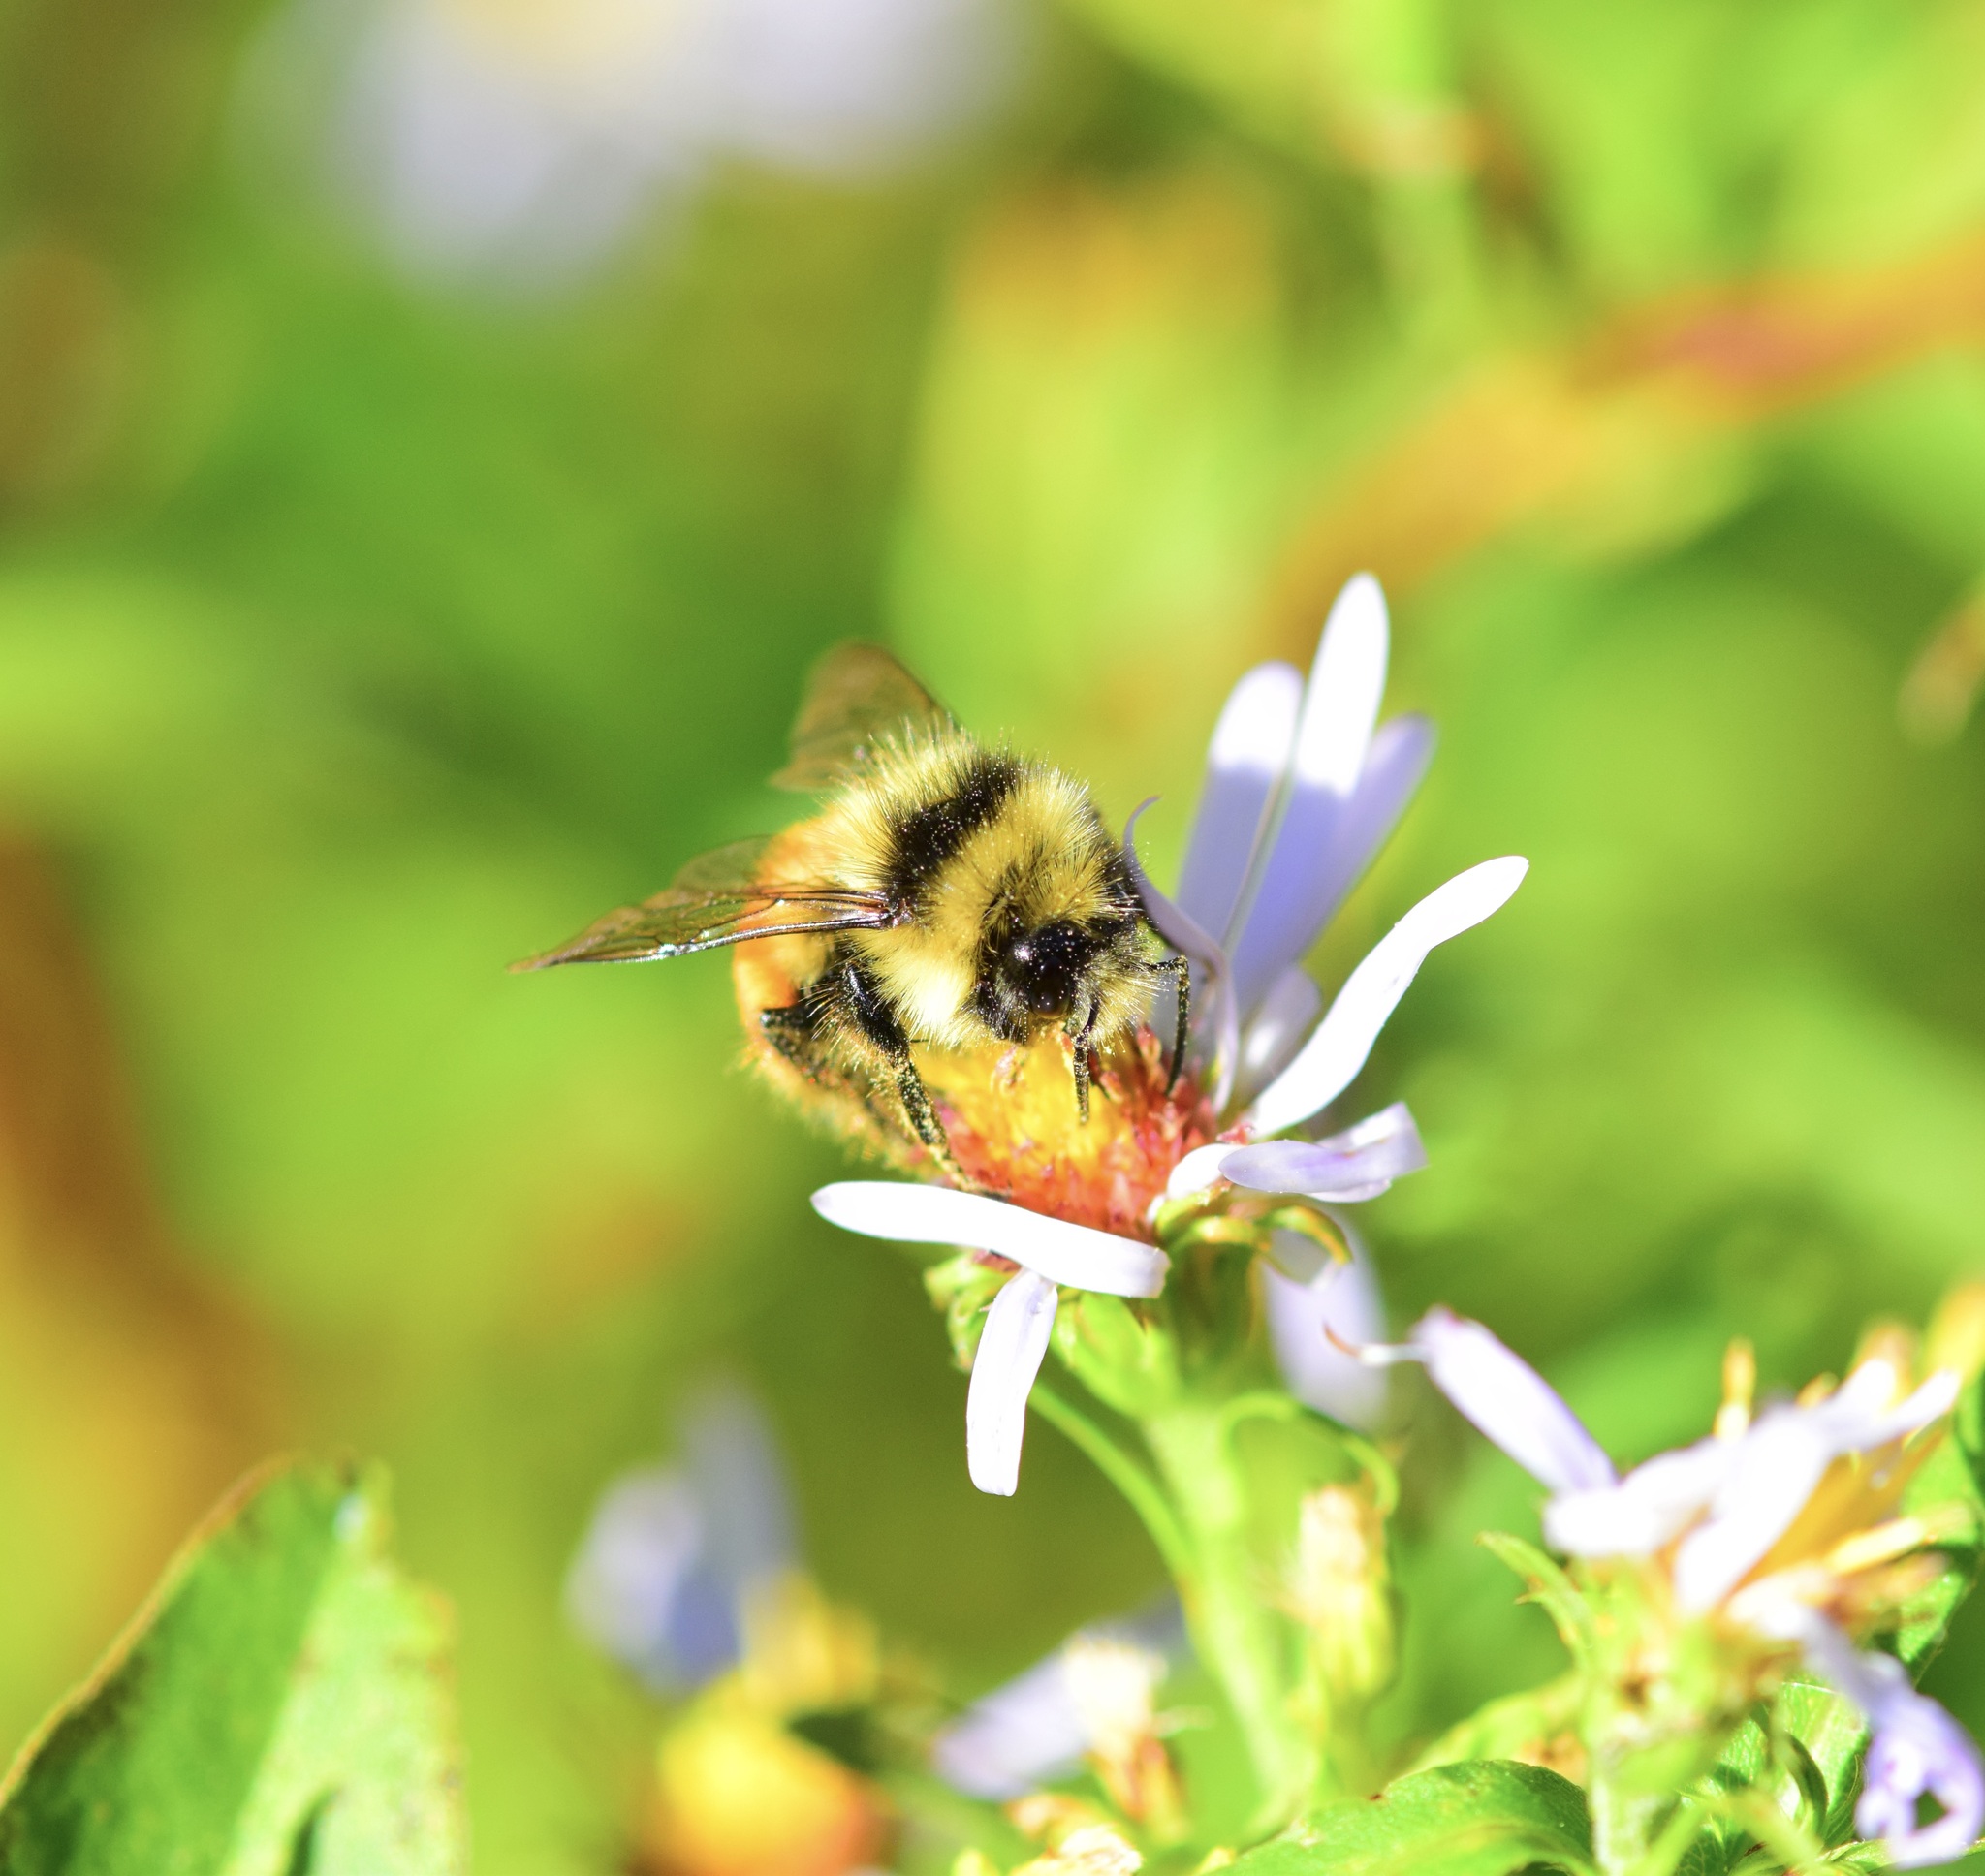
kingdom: Animalia
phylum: Arthropoda
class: Insecta
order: Hymenoptera
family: Apidae
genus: Bombus
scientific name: Bombus ternarius
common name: Tri-colored bumble bee
